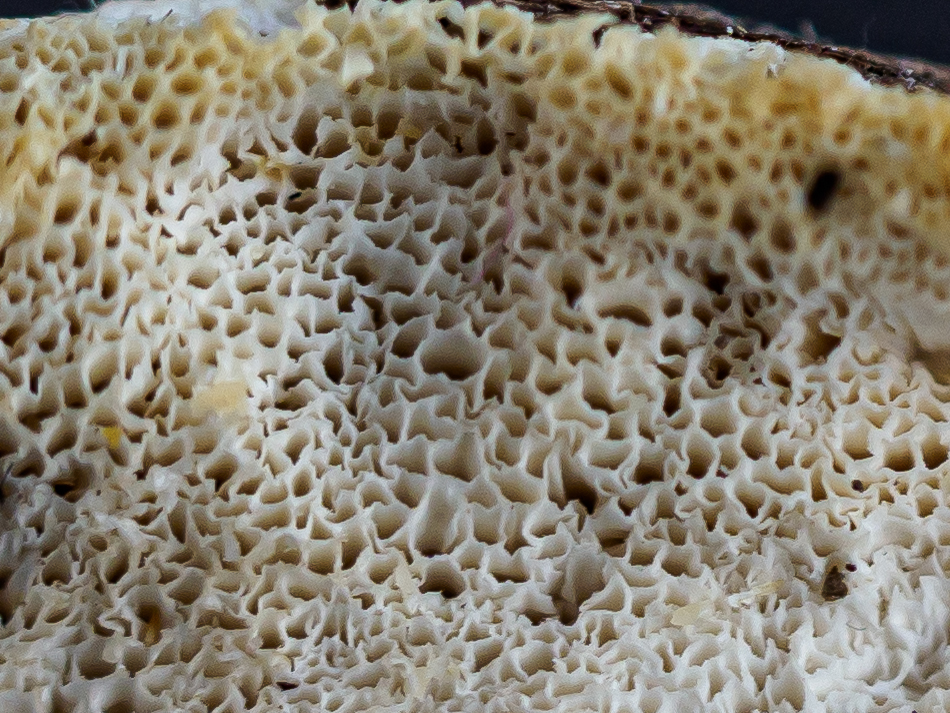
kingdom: Fungi
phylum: Basidiomycota
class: Agaricomycetes
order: Polyporales
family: Dacryobolaceae
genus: Postia
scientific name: Postia tephroleuca
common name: Greyling bracket
